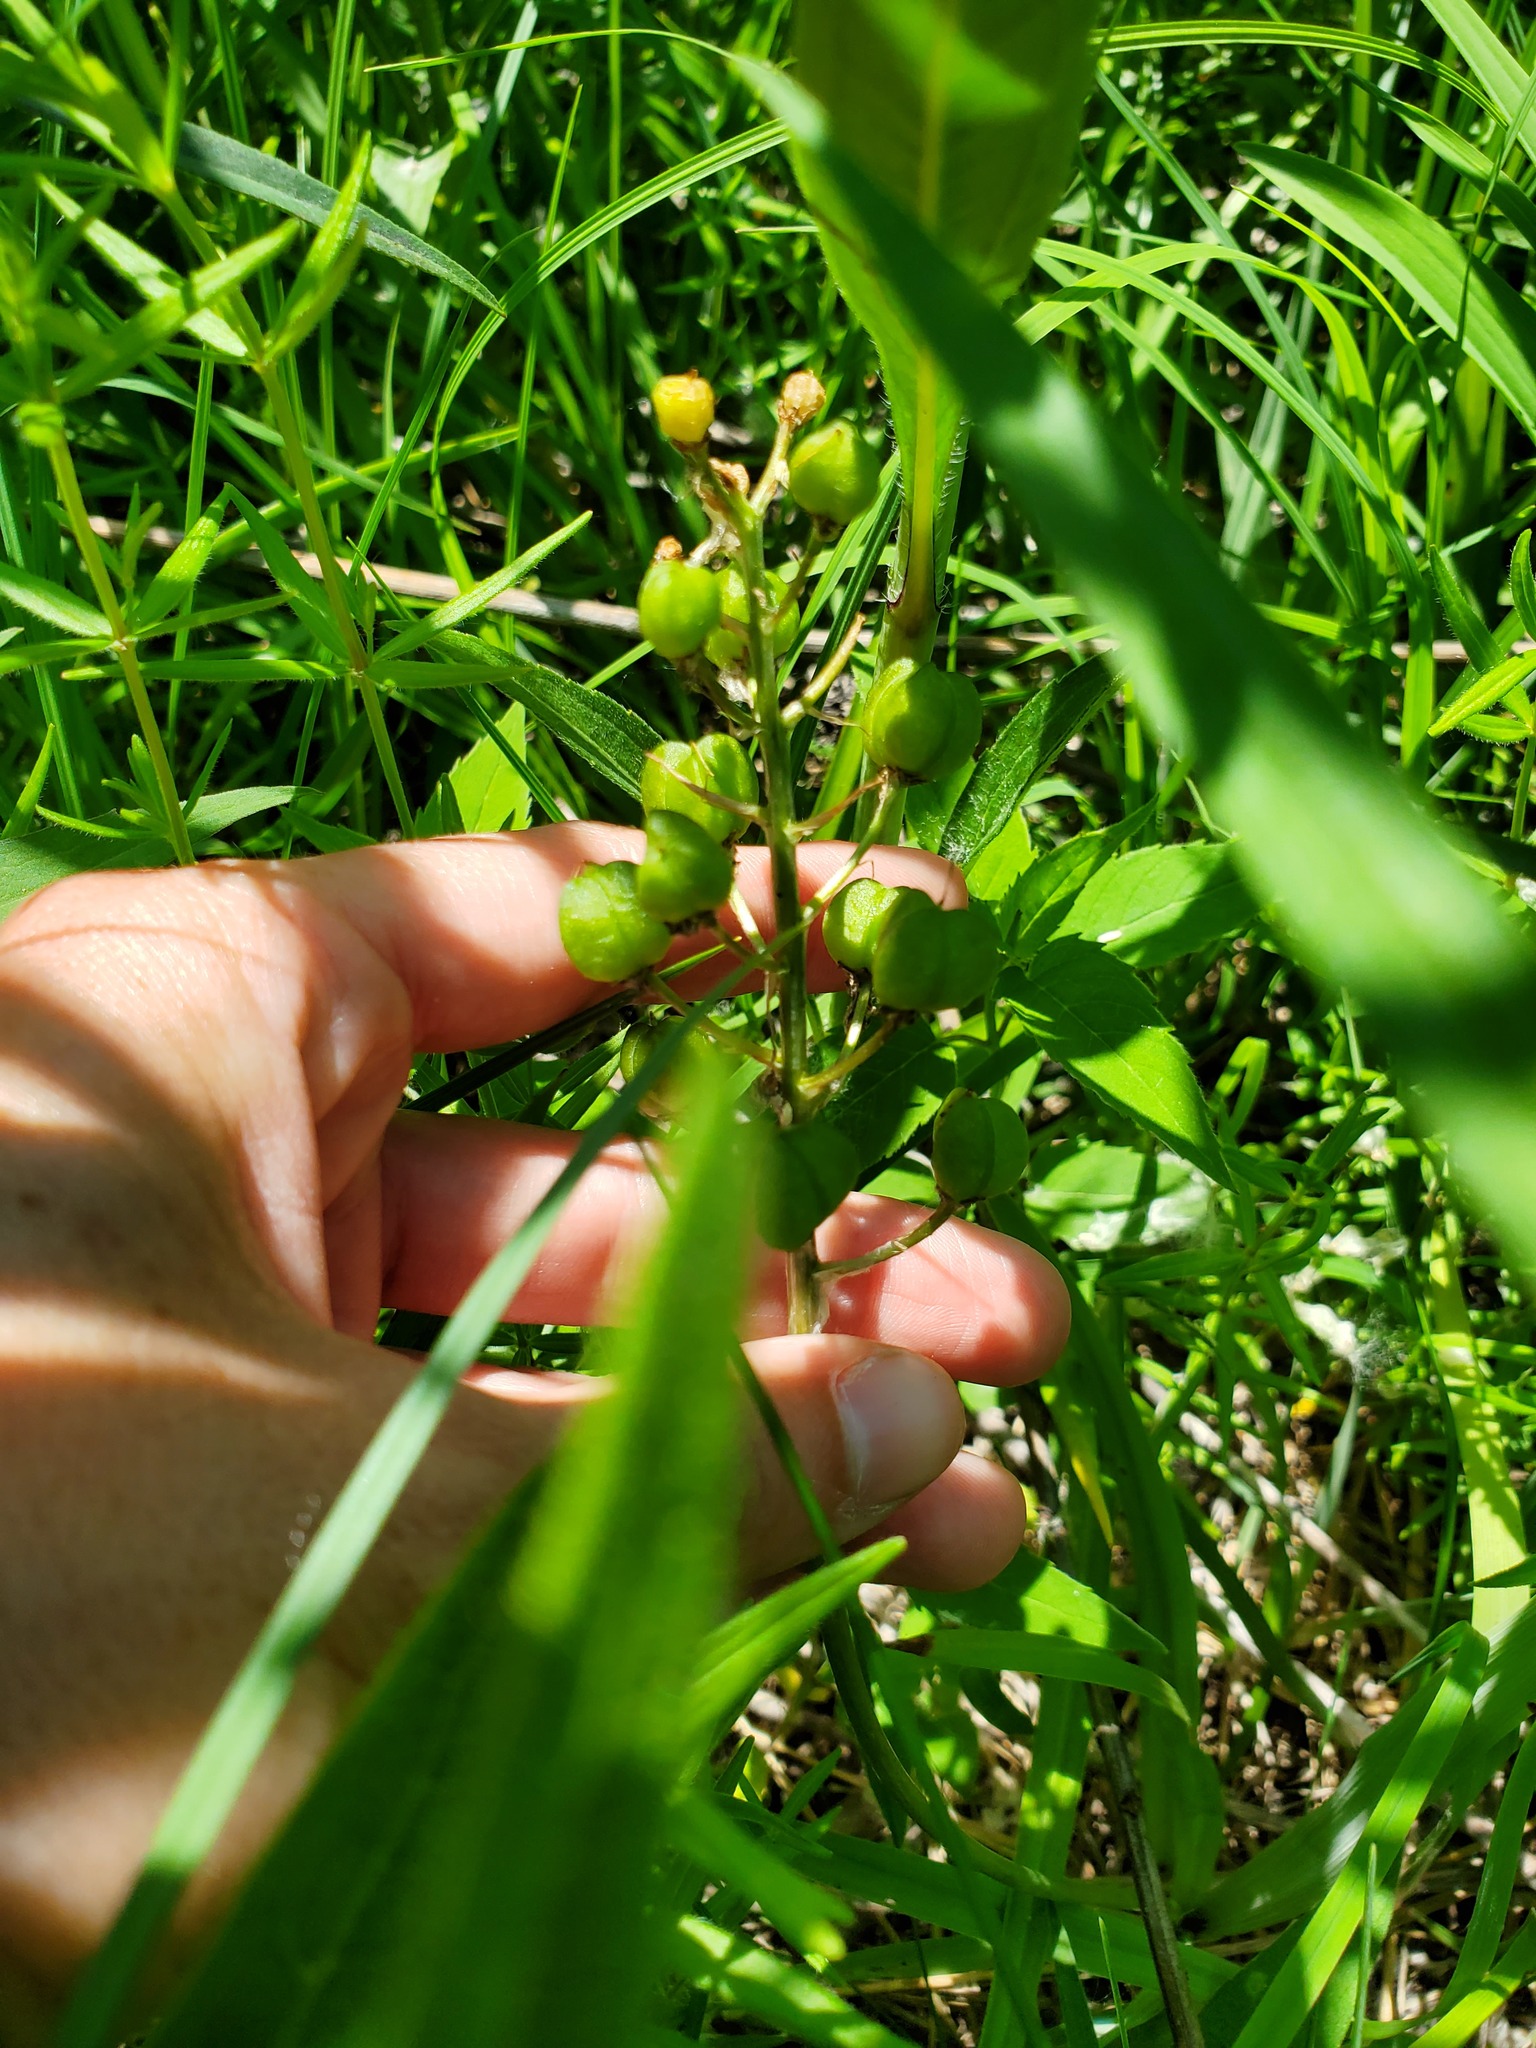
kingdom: Plantae
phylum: Tracheophyta
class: Liliopsida
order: Asparagales
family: Asparagaceae
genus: Camassia
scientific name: Camassia scilloides
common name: Wild hyacinth
